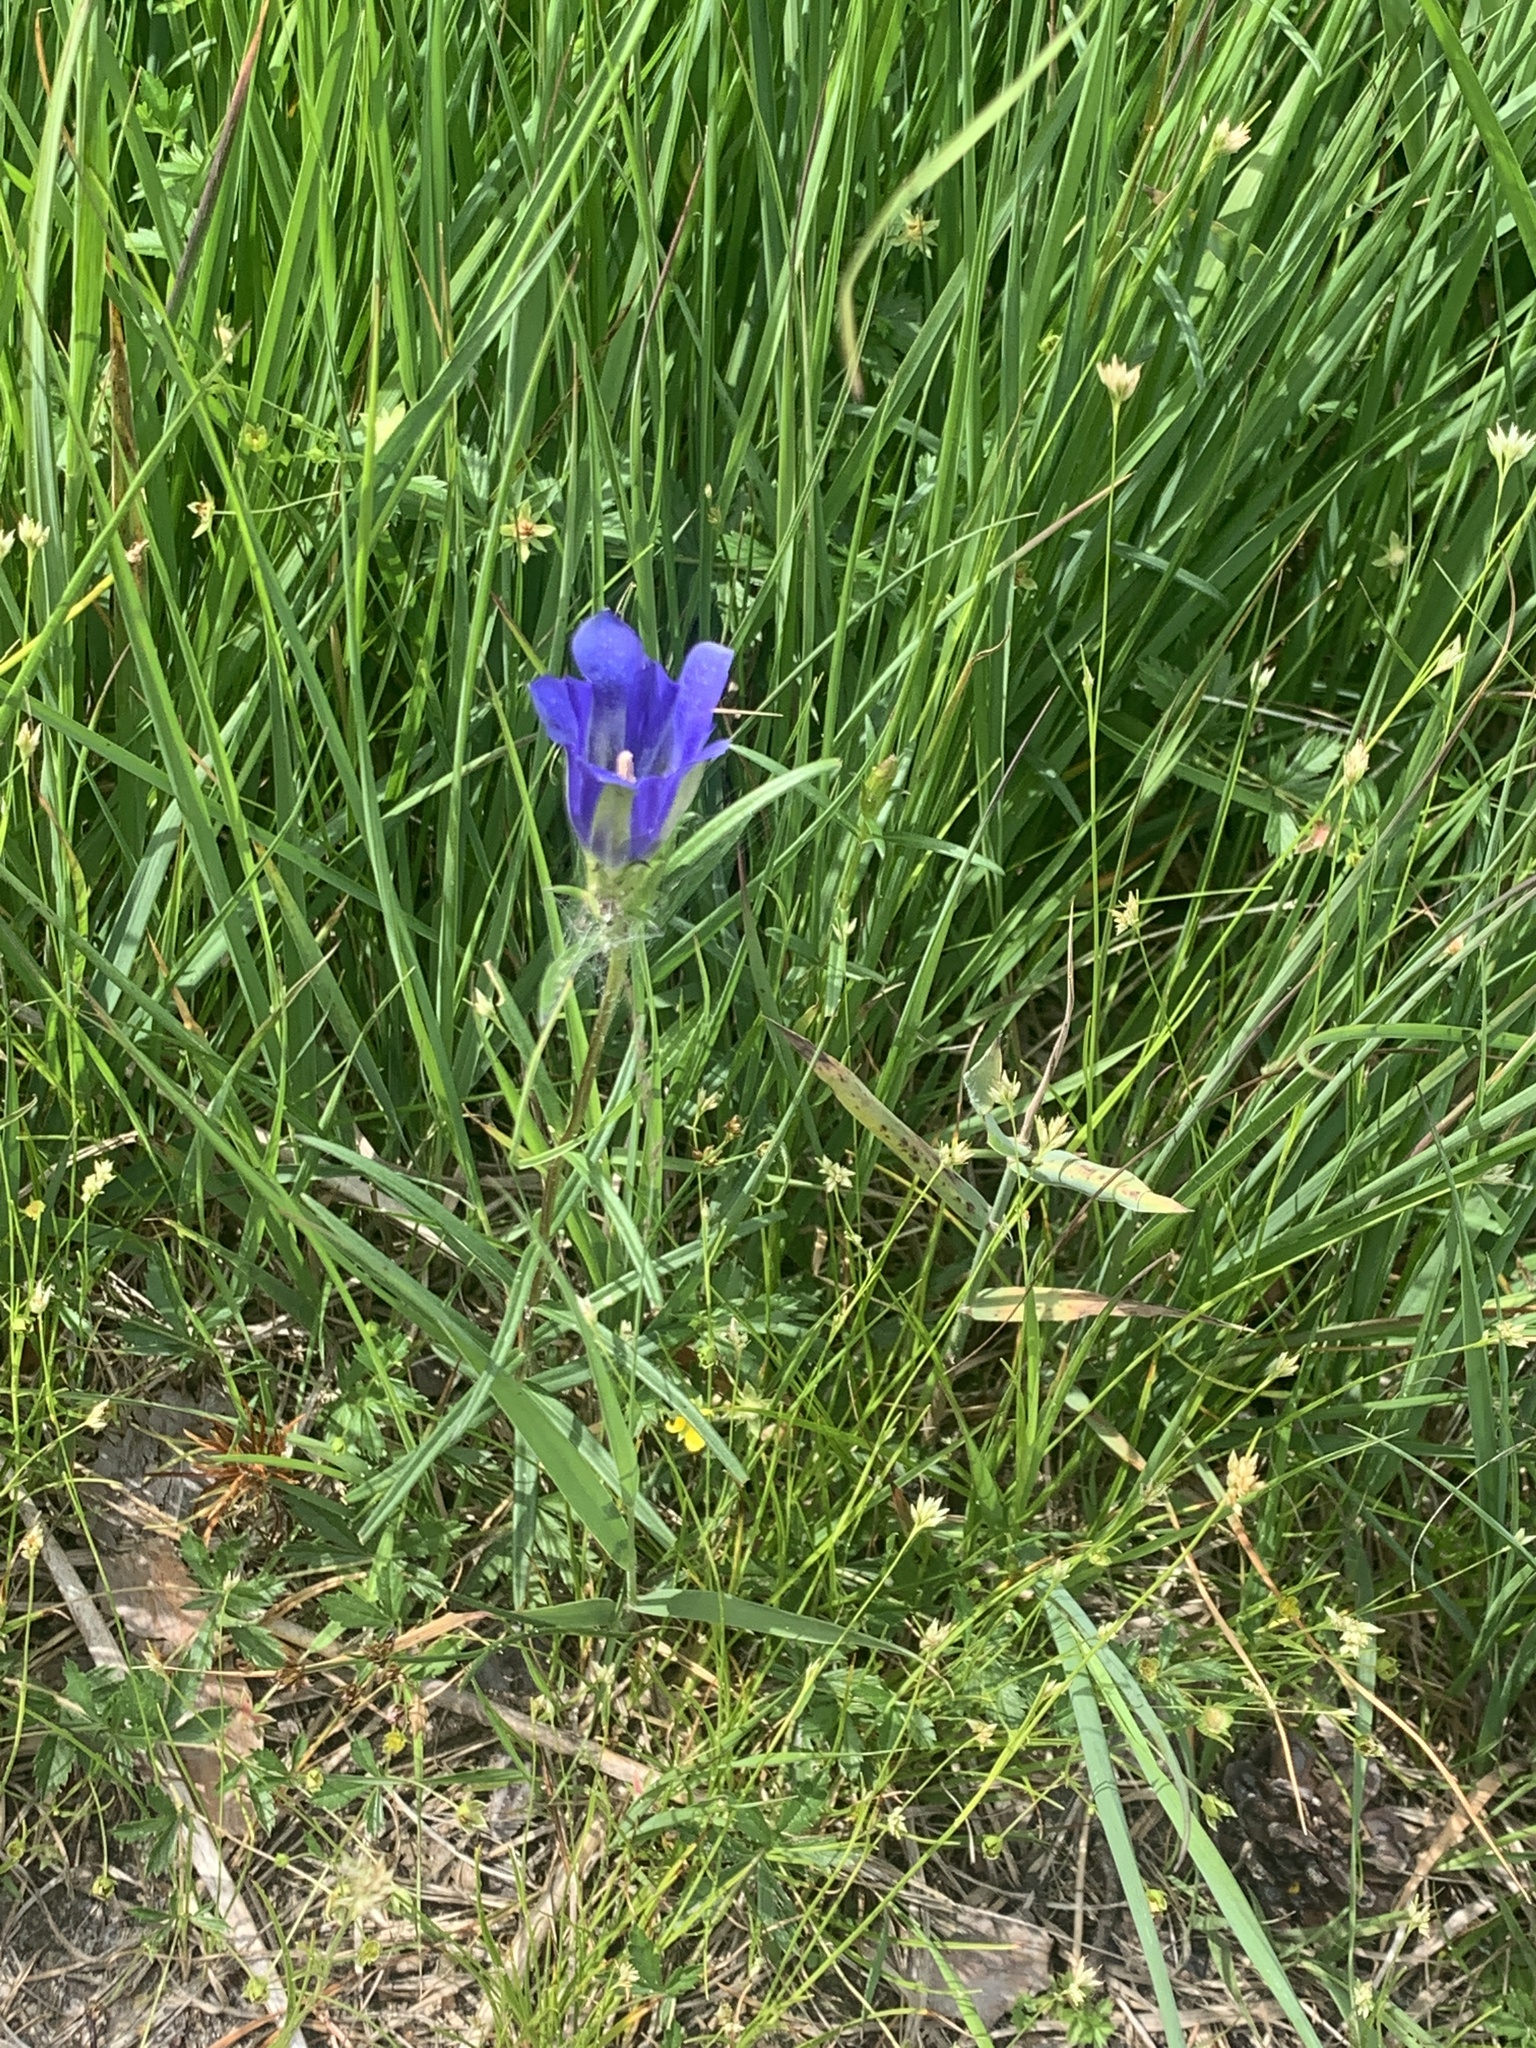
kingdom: Plantae
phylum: Tracheophyta
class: Magnoliopsida
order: Gentianales
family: Gentianaceae
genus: Gentiana
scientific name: Gentiana pneumonanthe
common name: Marsh gentian
